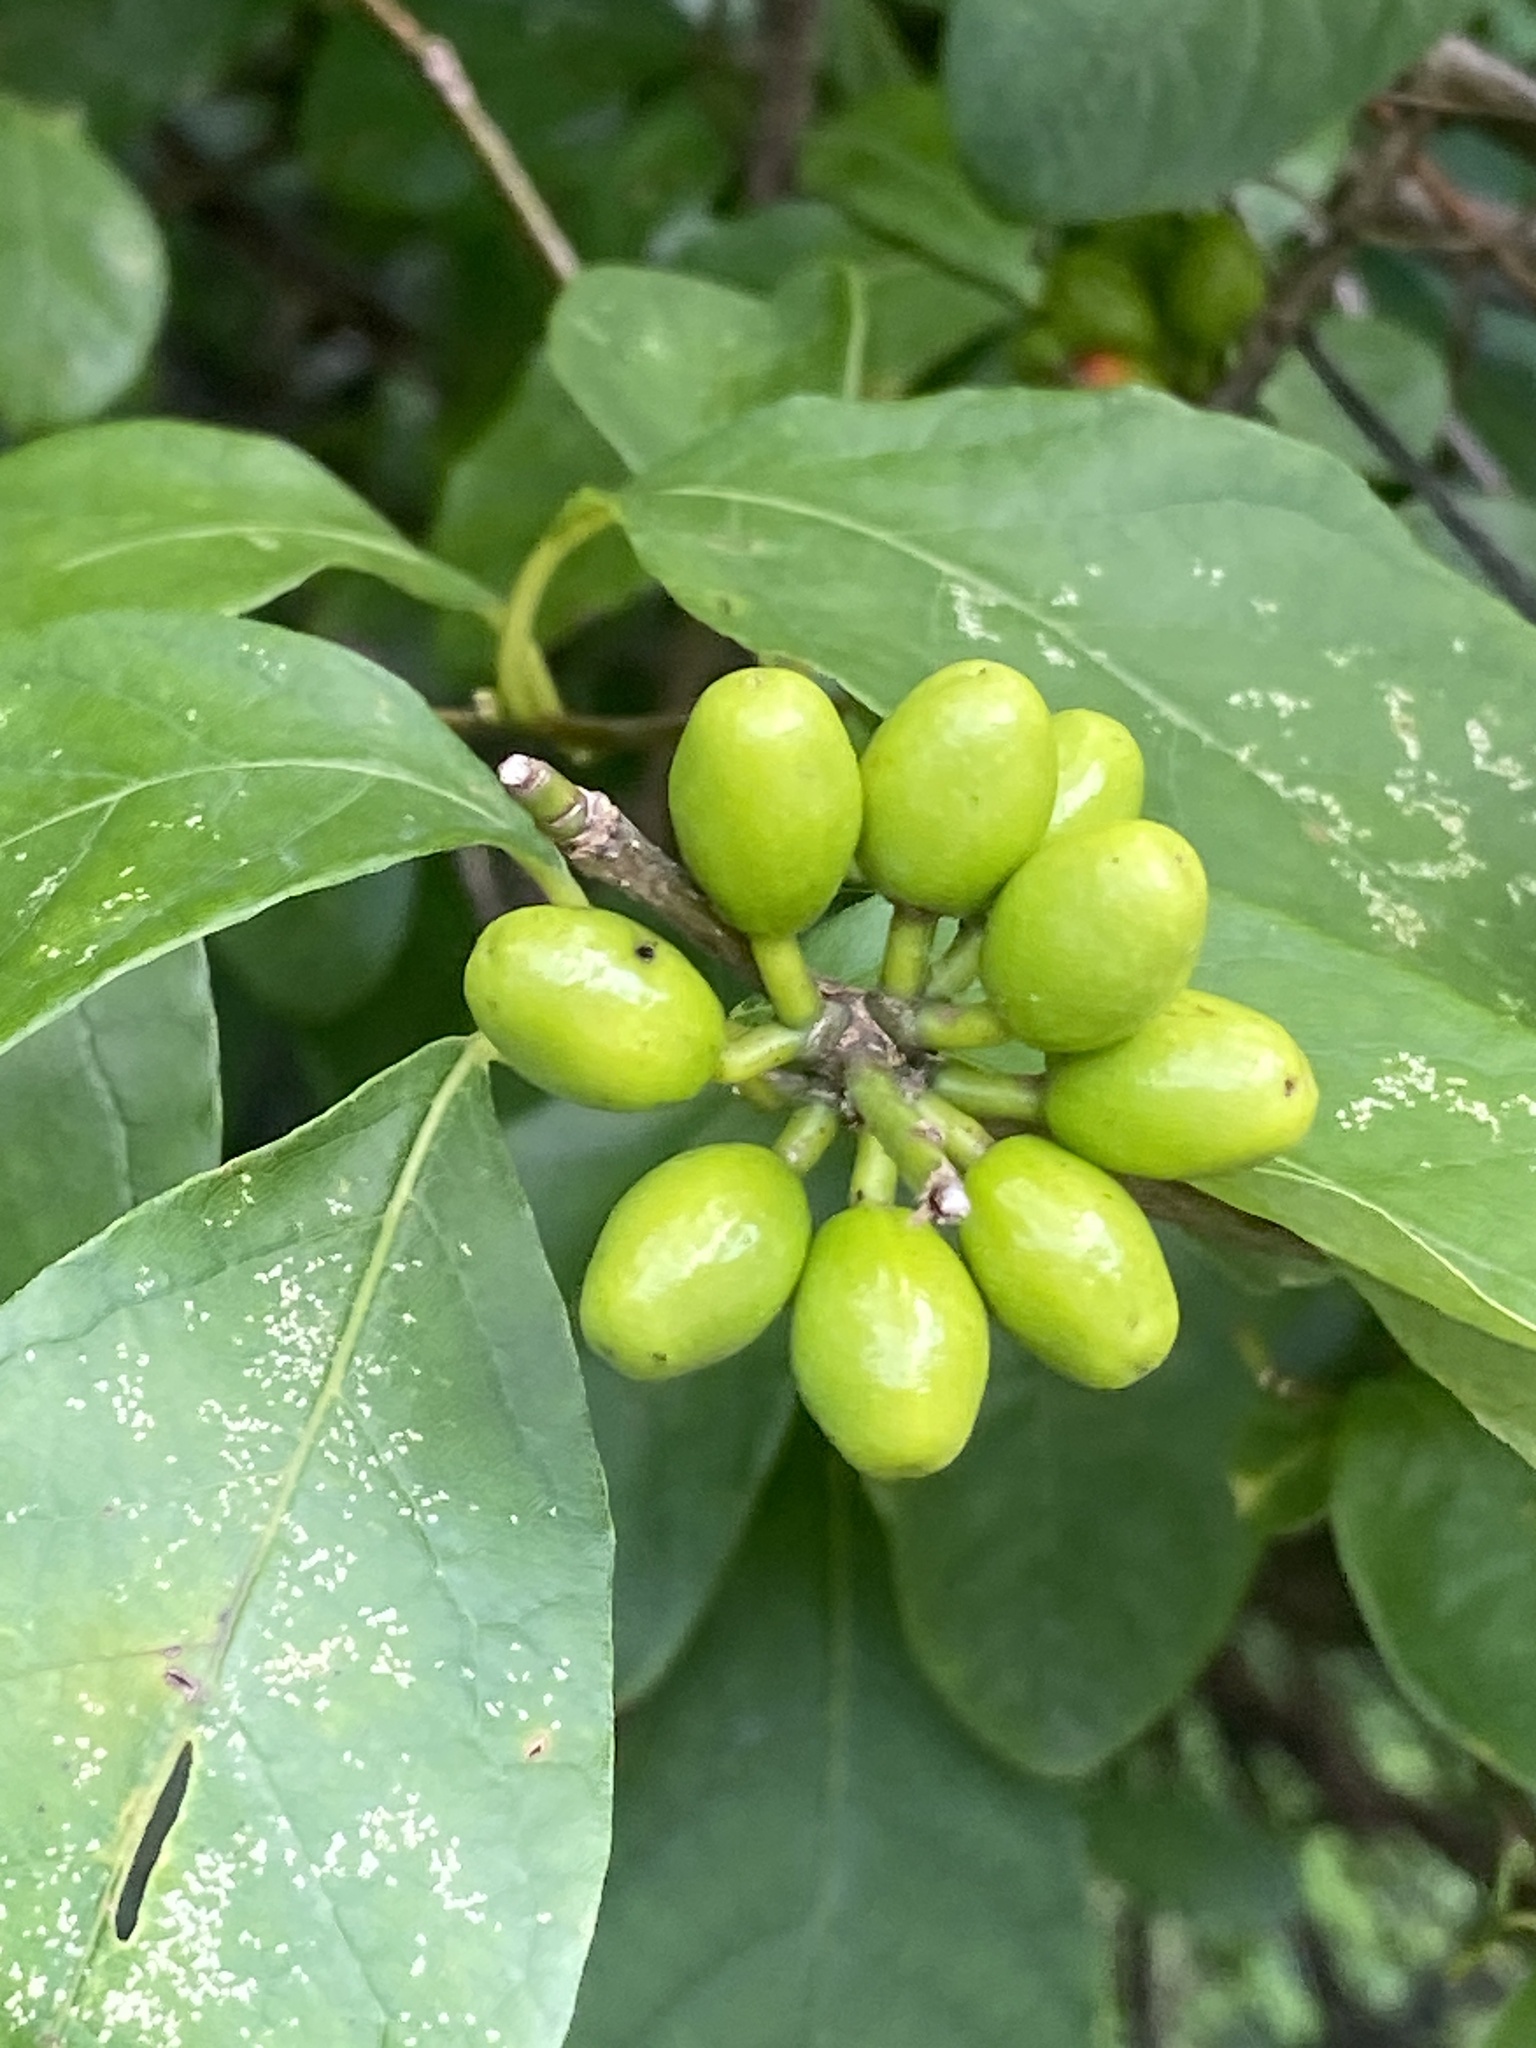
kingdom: Plantae
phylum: Tracheophyta
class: Magnoliopsida
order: Laurales
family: Lauraceae
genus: Lindera
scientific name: Lindera benzoin
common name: Spicebush
